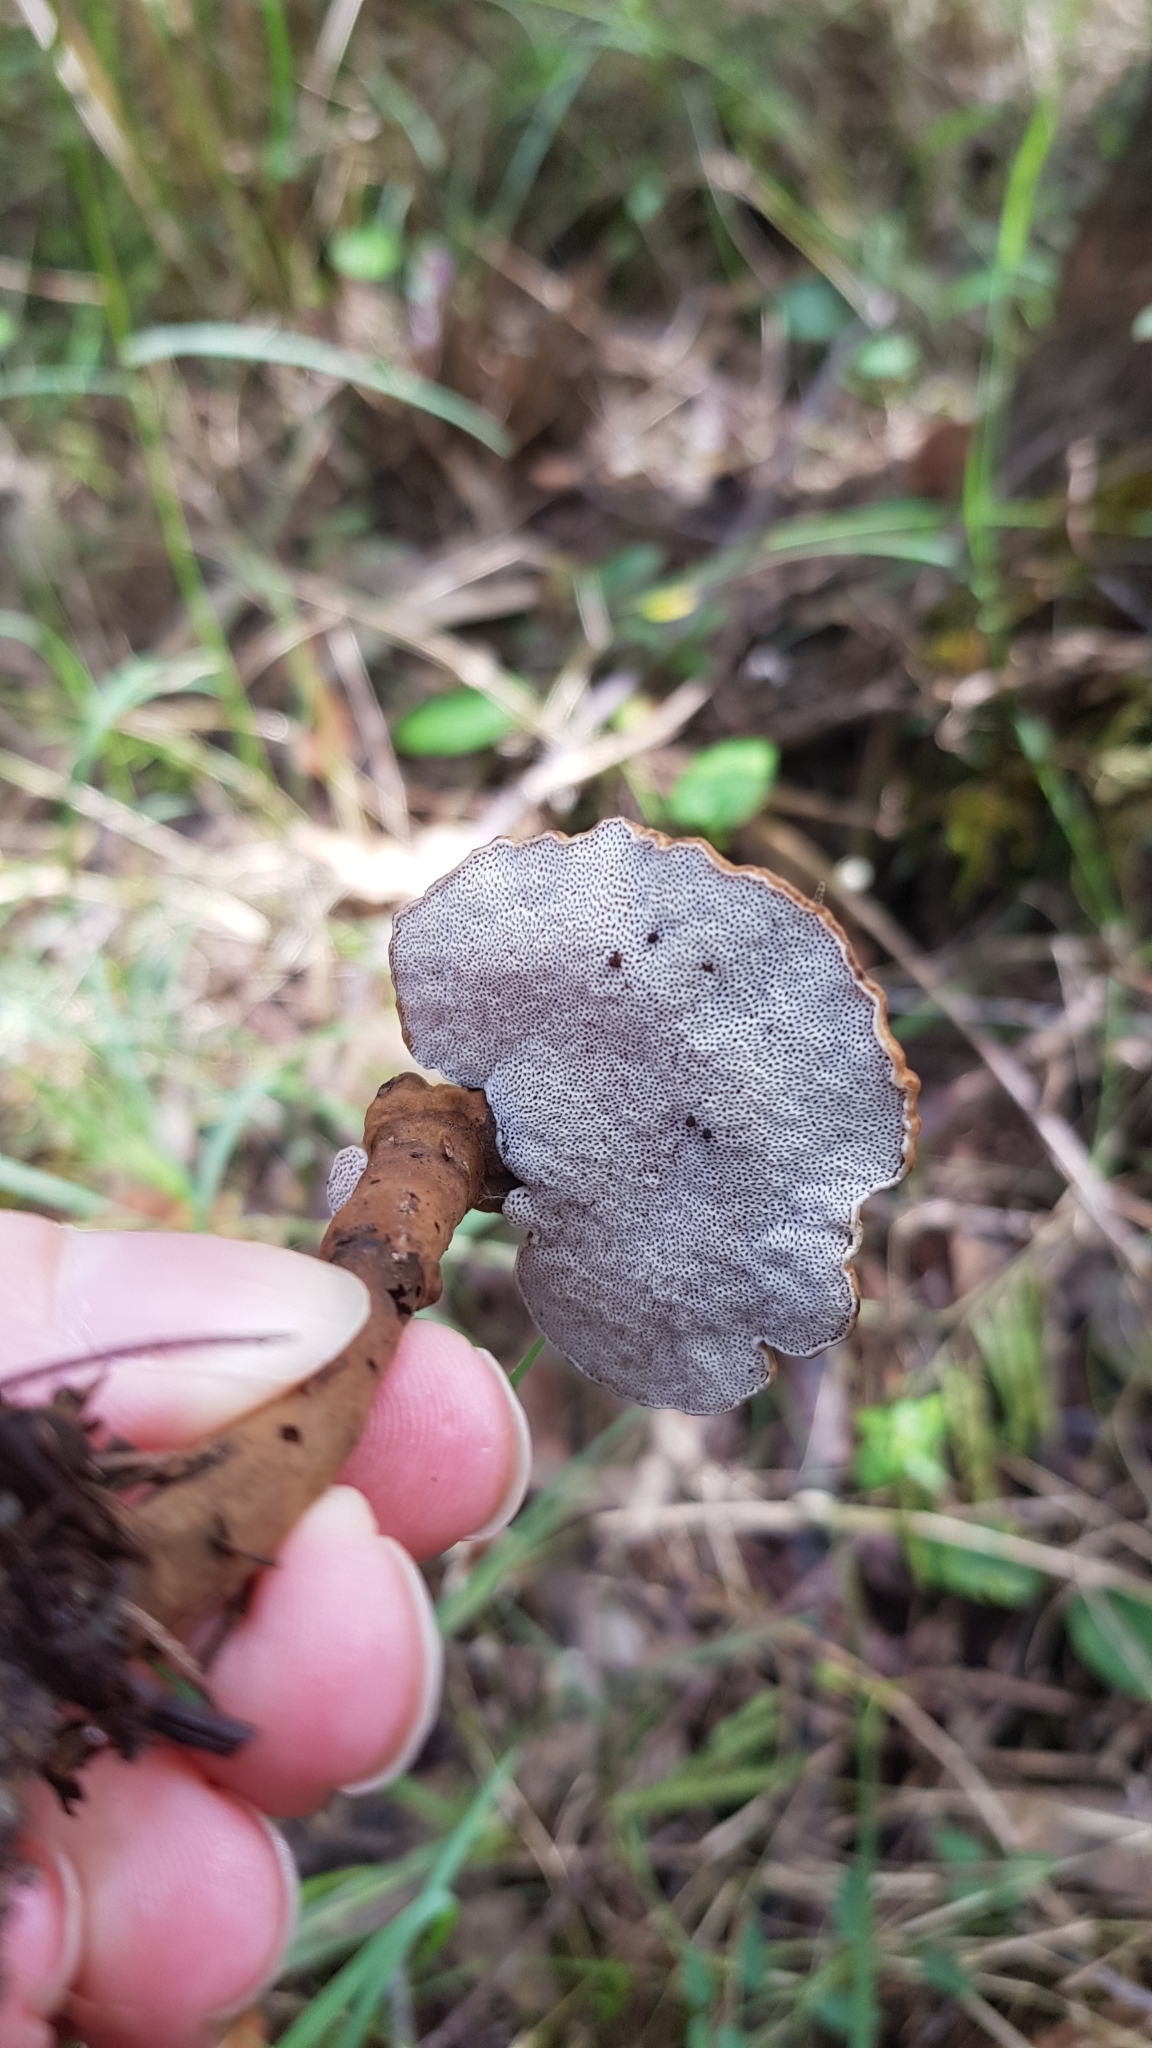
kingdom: Fungi
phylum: Basidiomycota
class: Agaricomycetes
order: Polyporales
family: Ganodermataceae
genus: Sanguinoderma
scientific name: Sanguinoderma rude
